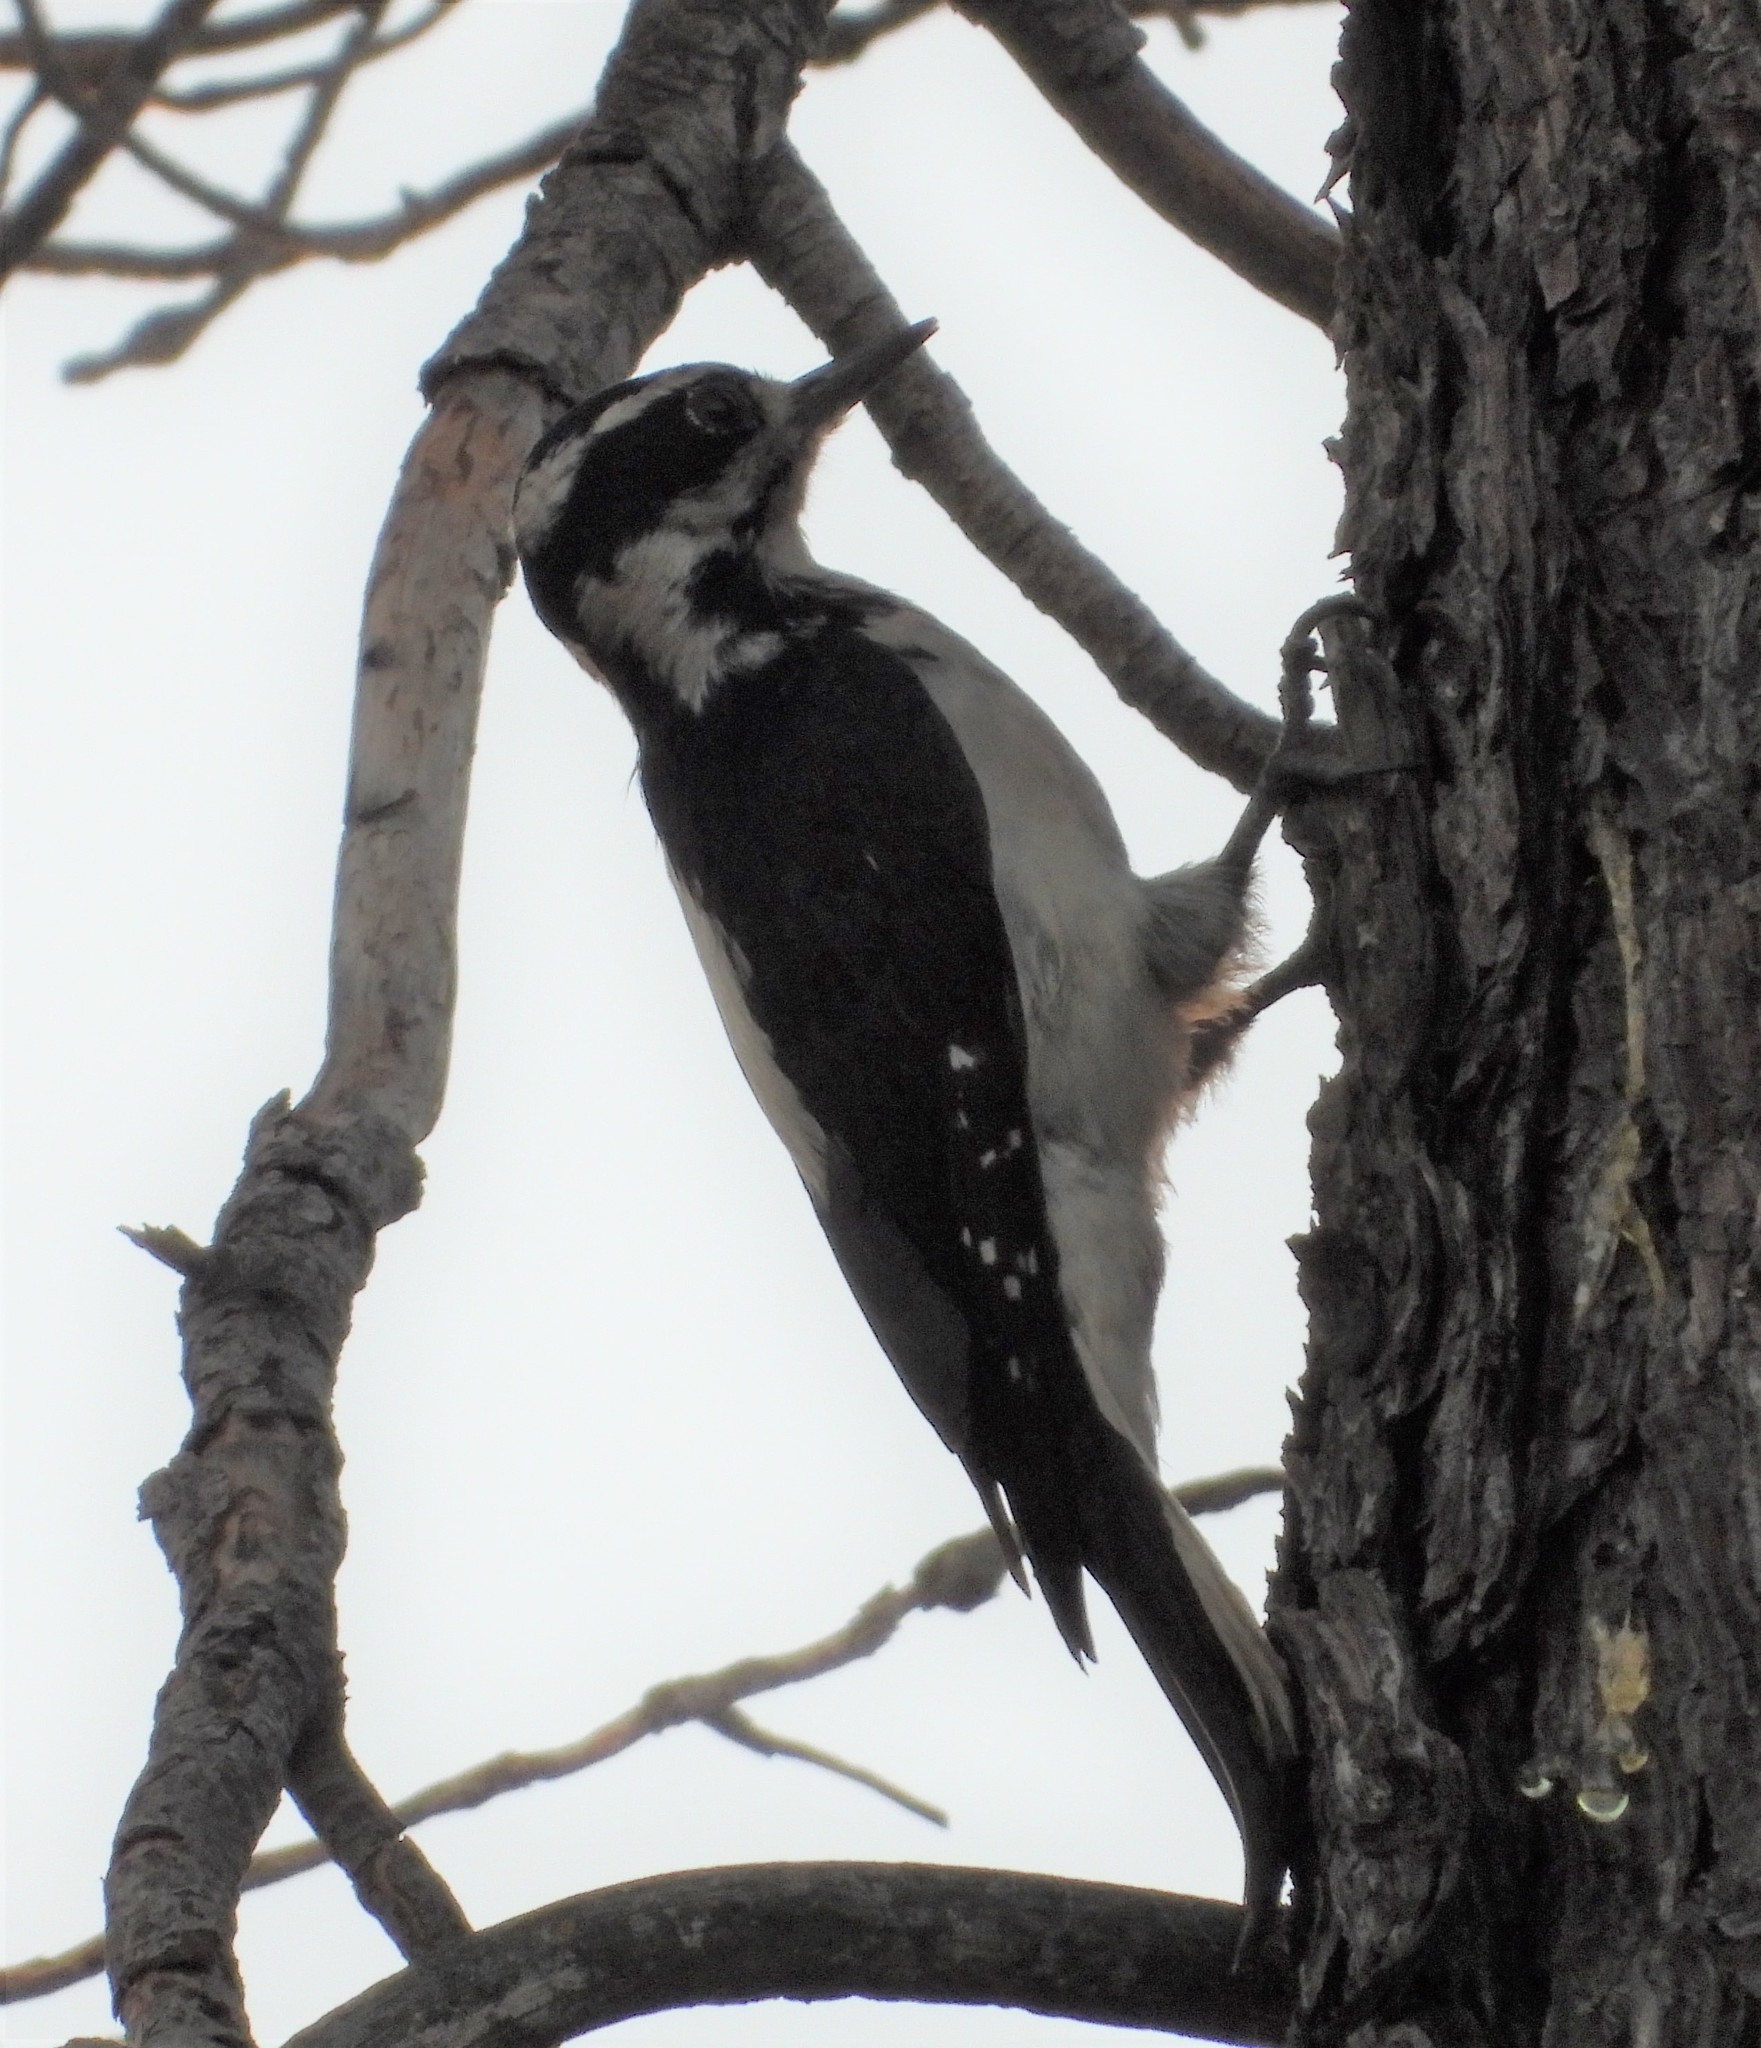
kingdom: Animalia
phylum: Chordata
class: Aves
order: Piciformes
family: Picidae
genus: Leuconotopicus
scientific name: Leuconotopicus villosus
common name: Hairy woodpecker
